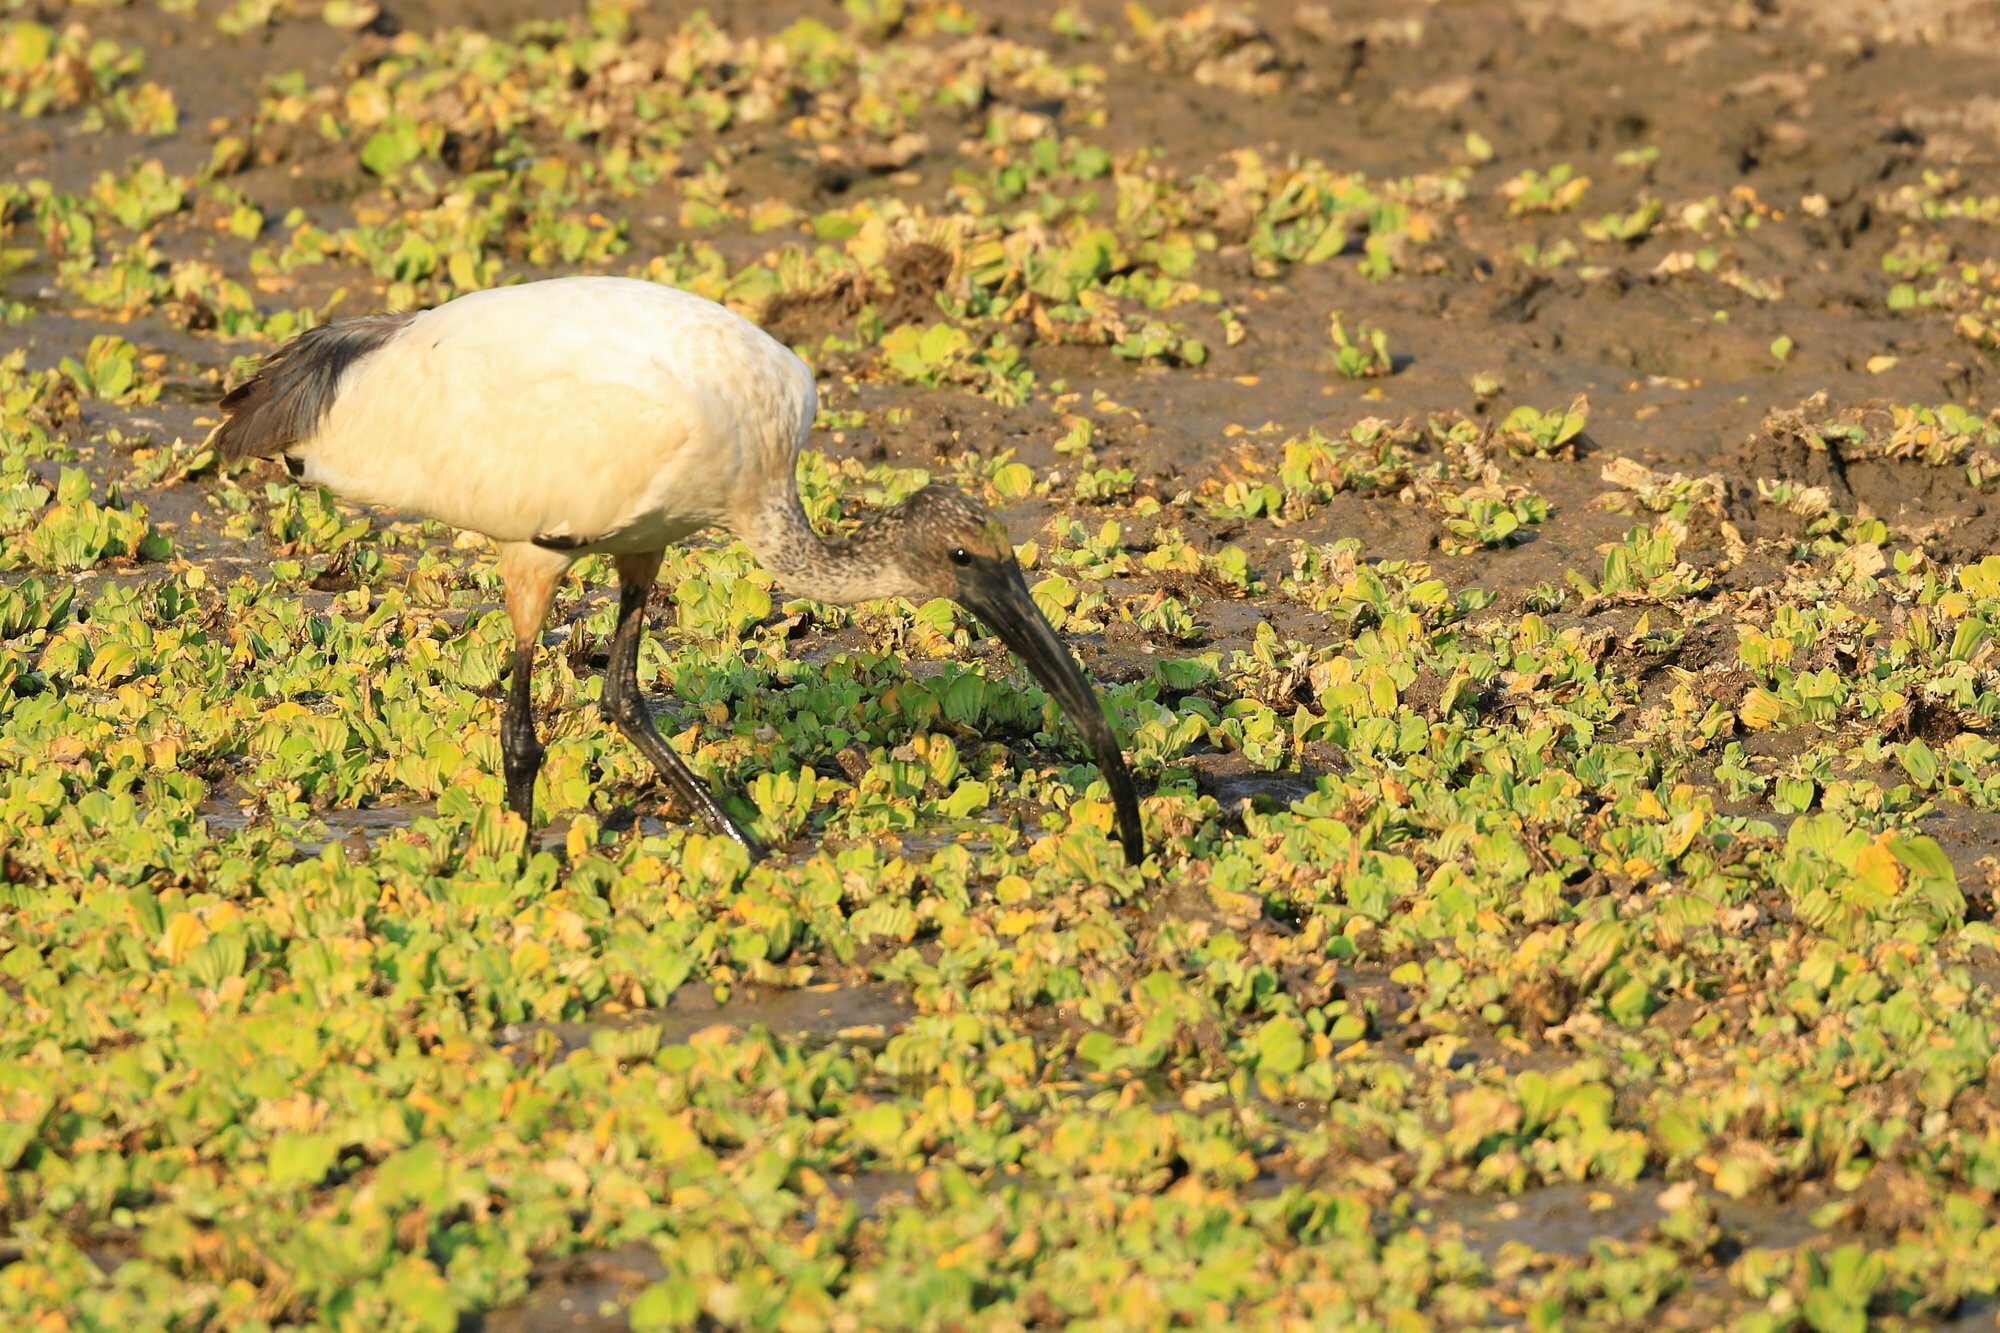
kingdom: Animalia
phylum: Chordata
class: Aves
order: Pelecaniformes
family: Threskiornithidae
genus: Threskiornis
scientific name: Threskiornis aethiopicus
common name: Sacred ibis
